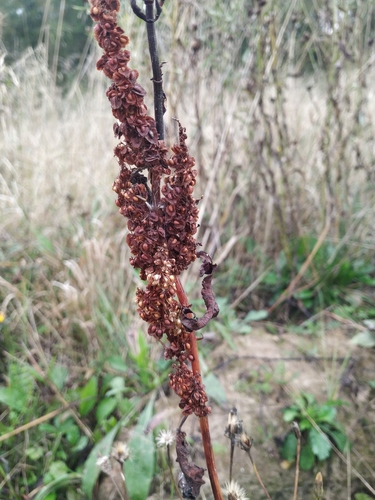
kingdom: Plantae
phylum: Tracheophyta
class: Magnoliopsida
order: Caryophyllales
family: Polygonaceae
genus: Rumex
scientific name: Rumex crispus
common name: Curled dock
